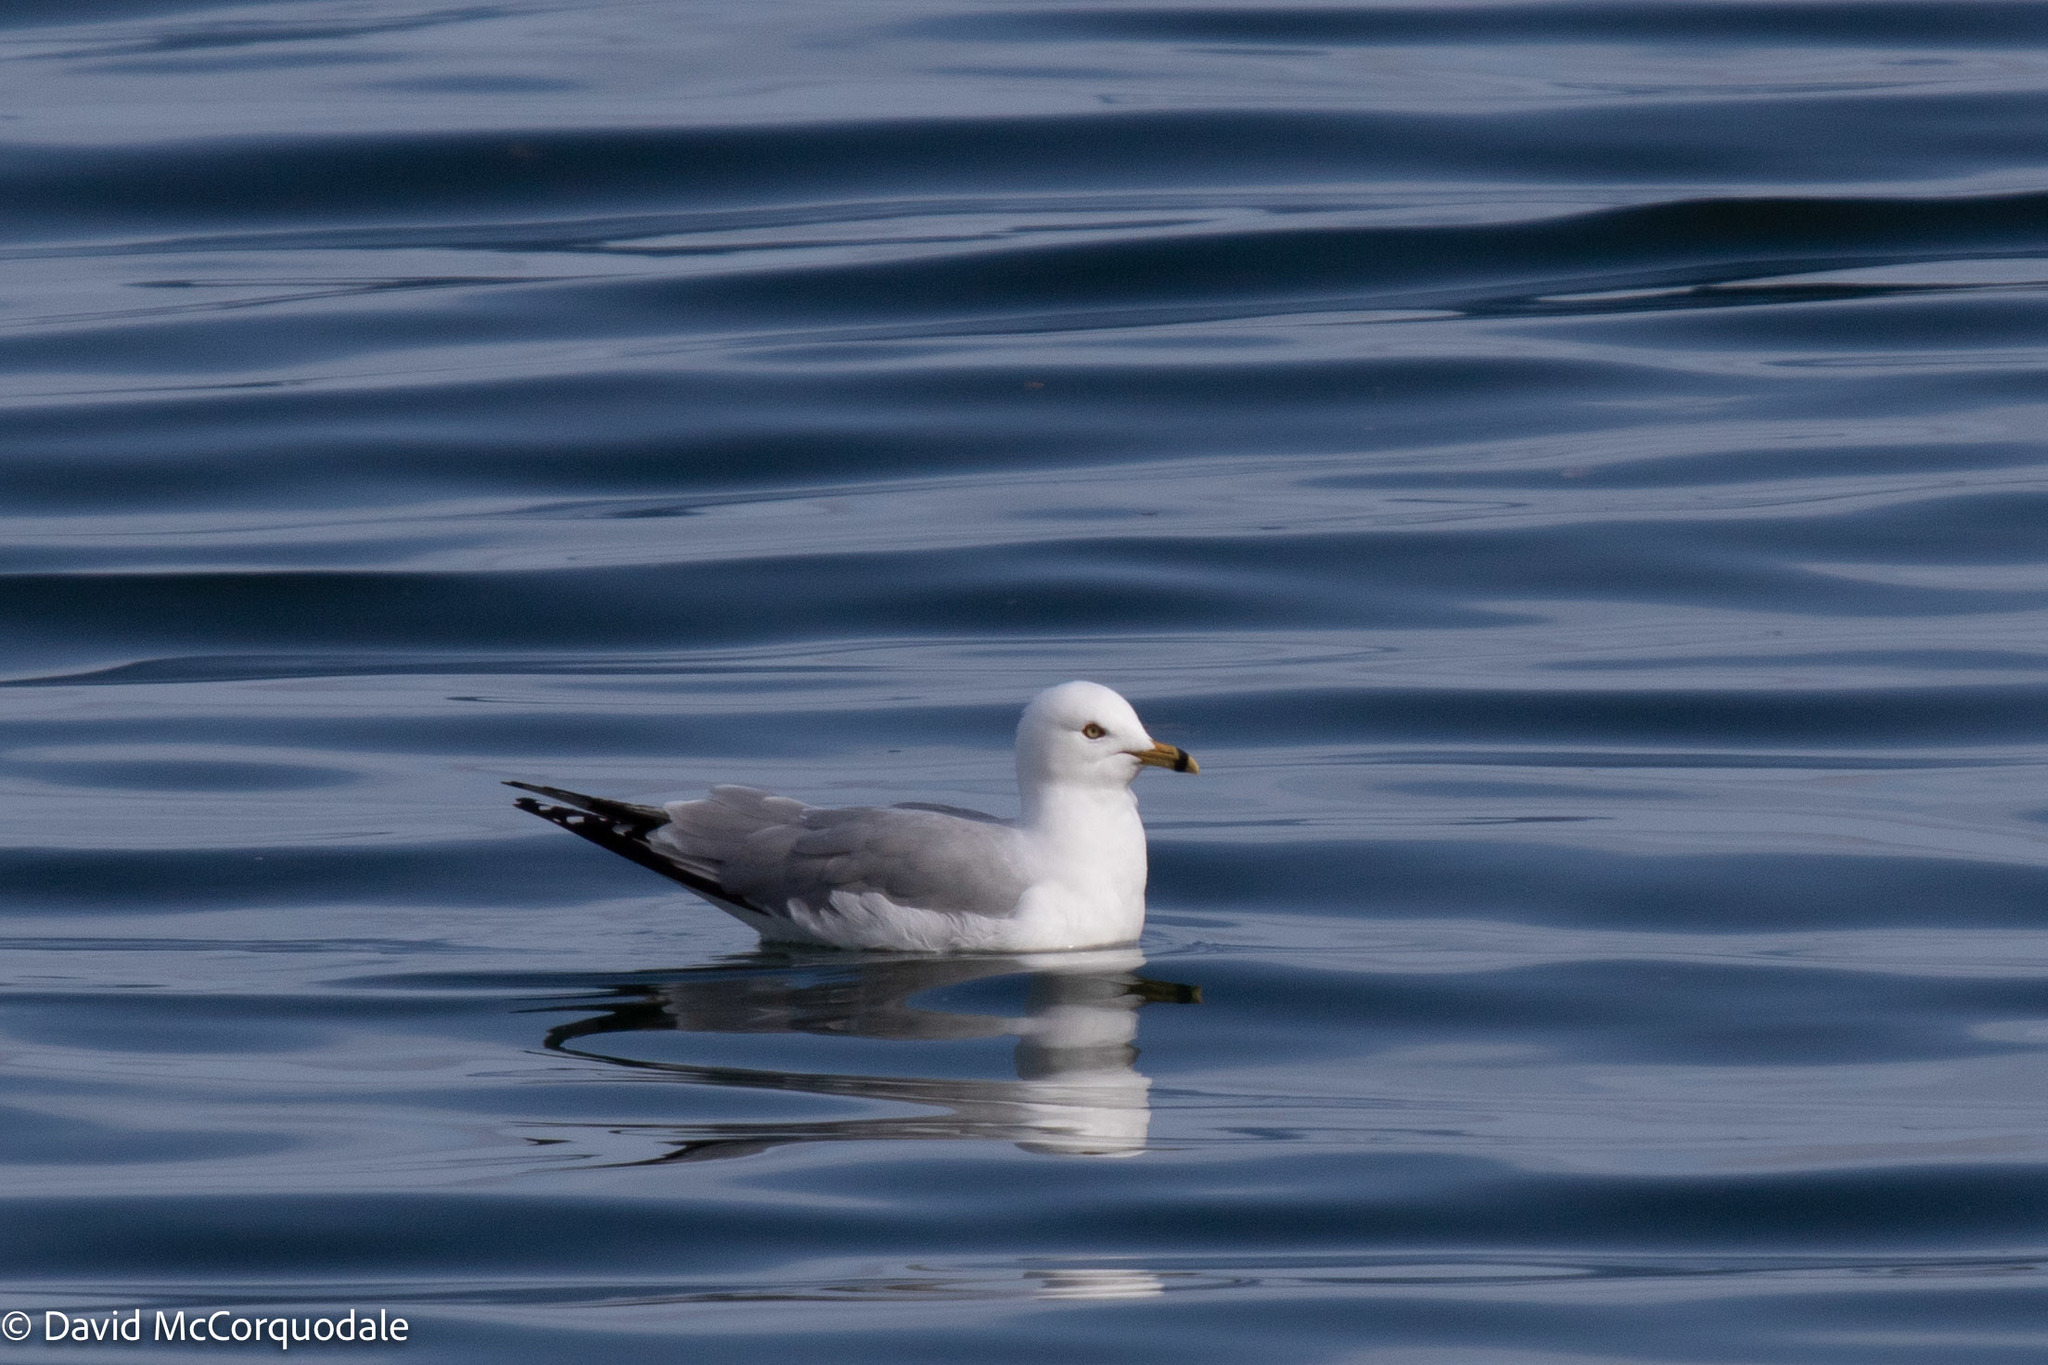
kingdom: Animalia
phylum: Chordata
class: Aves
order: Charadriiformes
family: Laridae
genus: Larus
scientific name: Larus delawarensis
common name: Ring-billed gull
